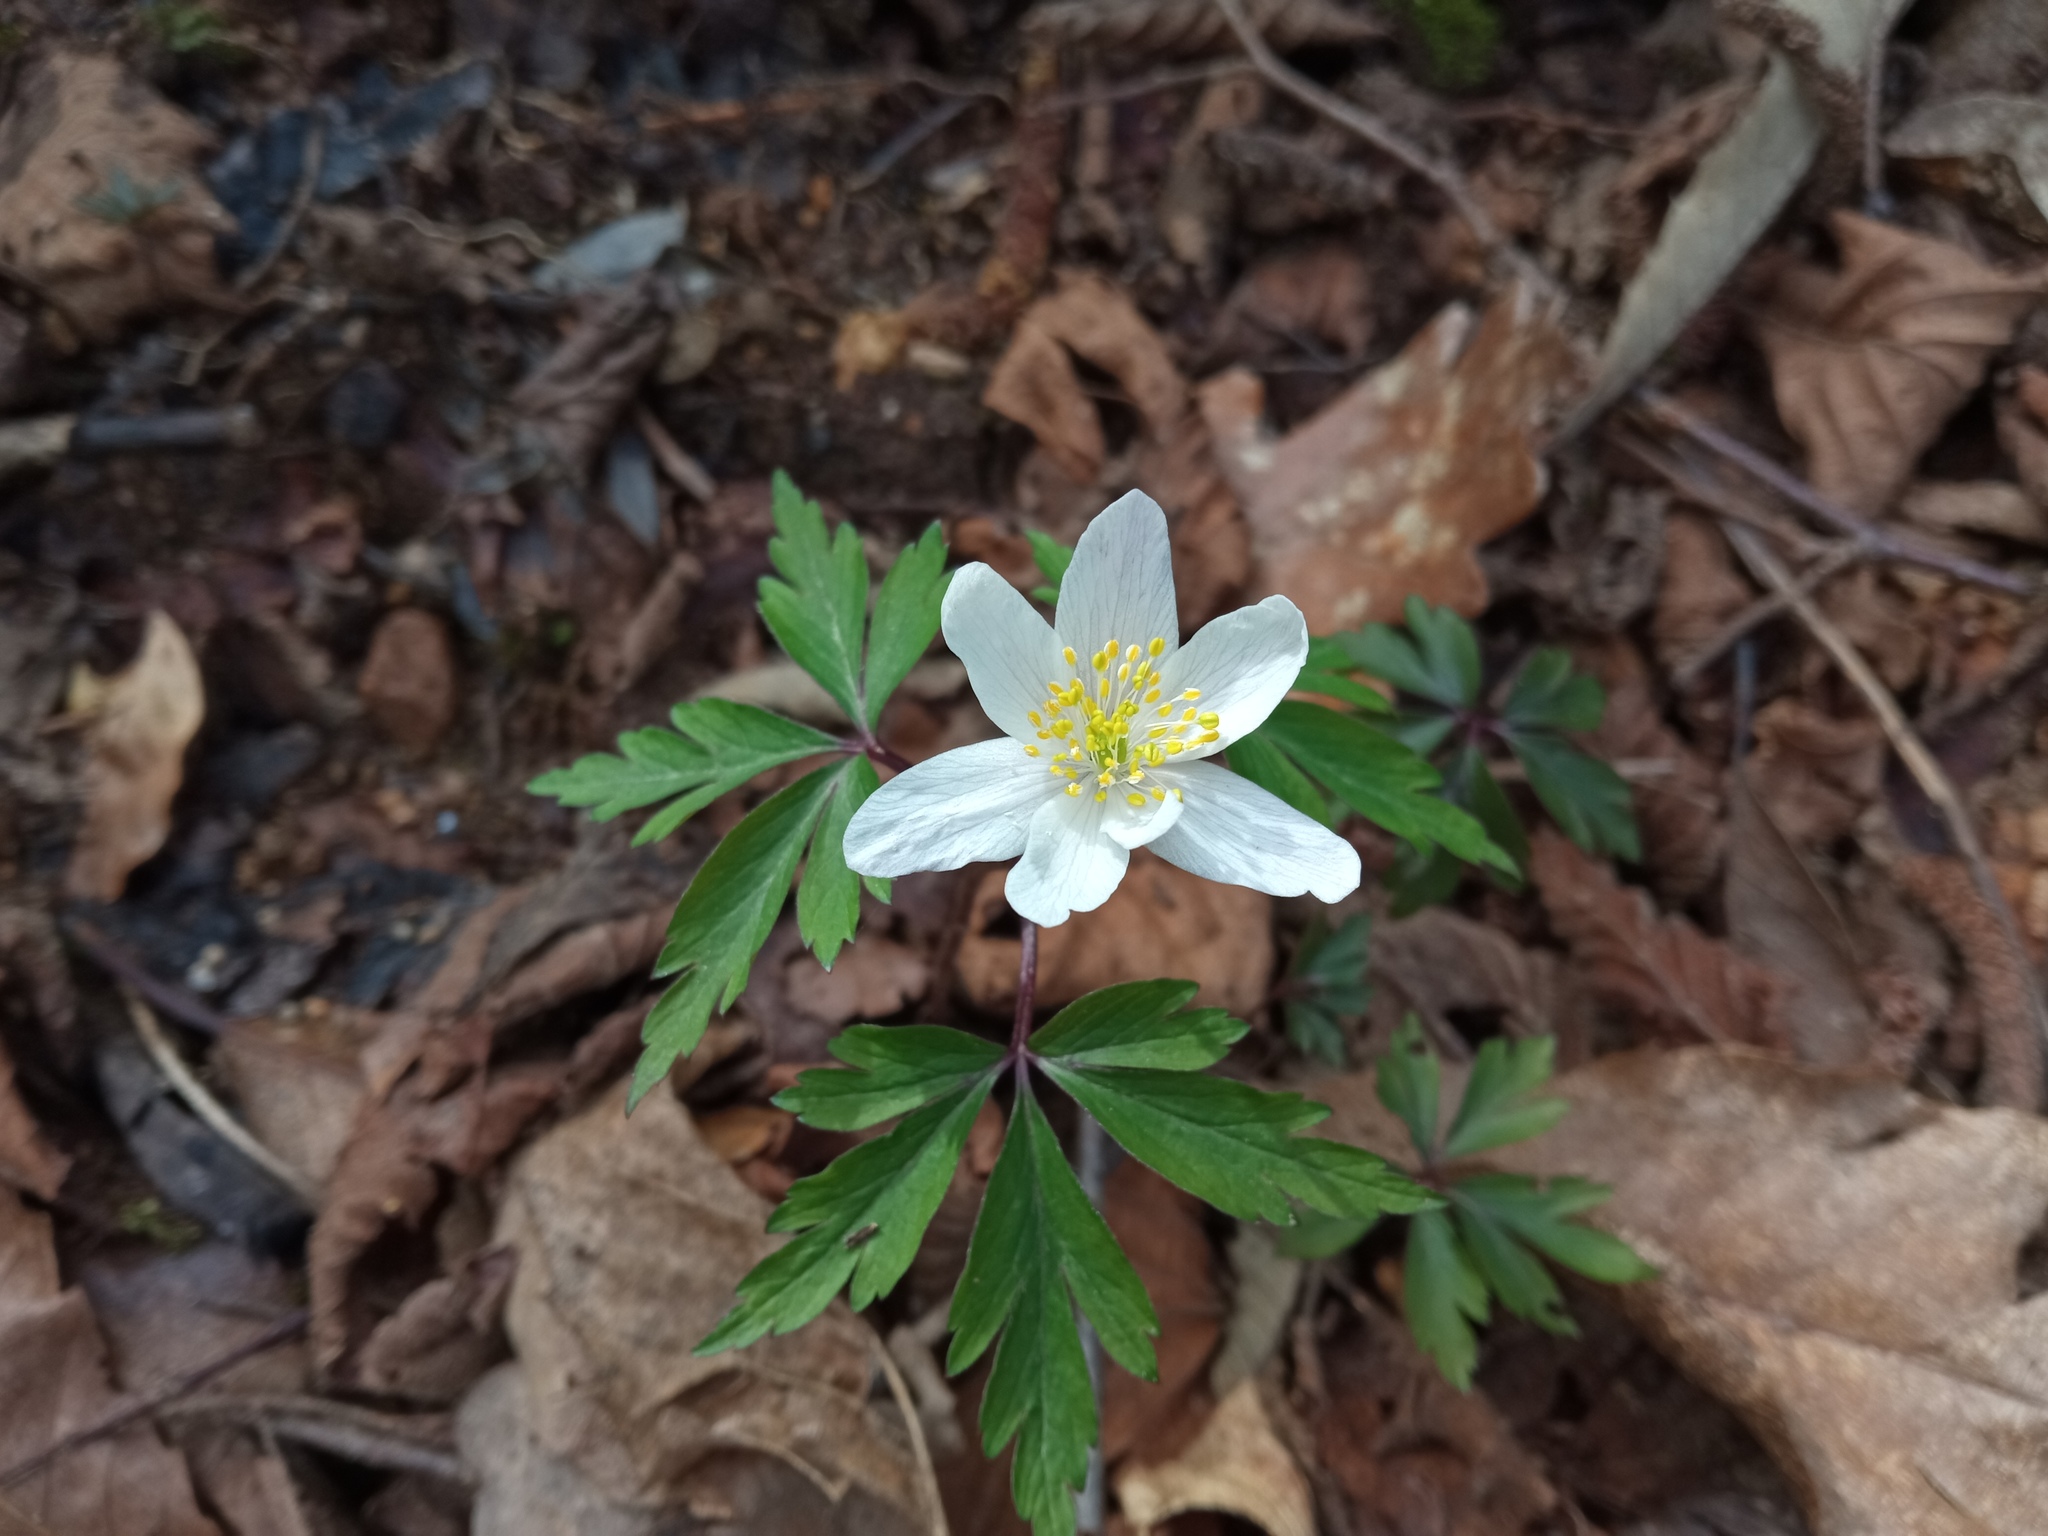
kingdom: Plantae
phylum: Tracheophyta
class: Magnoliopsida
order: Ranunculales
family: Ranunculaceae
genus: Anemone
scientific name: Anemone nemorosa
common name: Wood anemone
